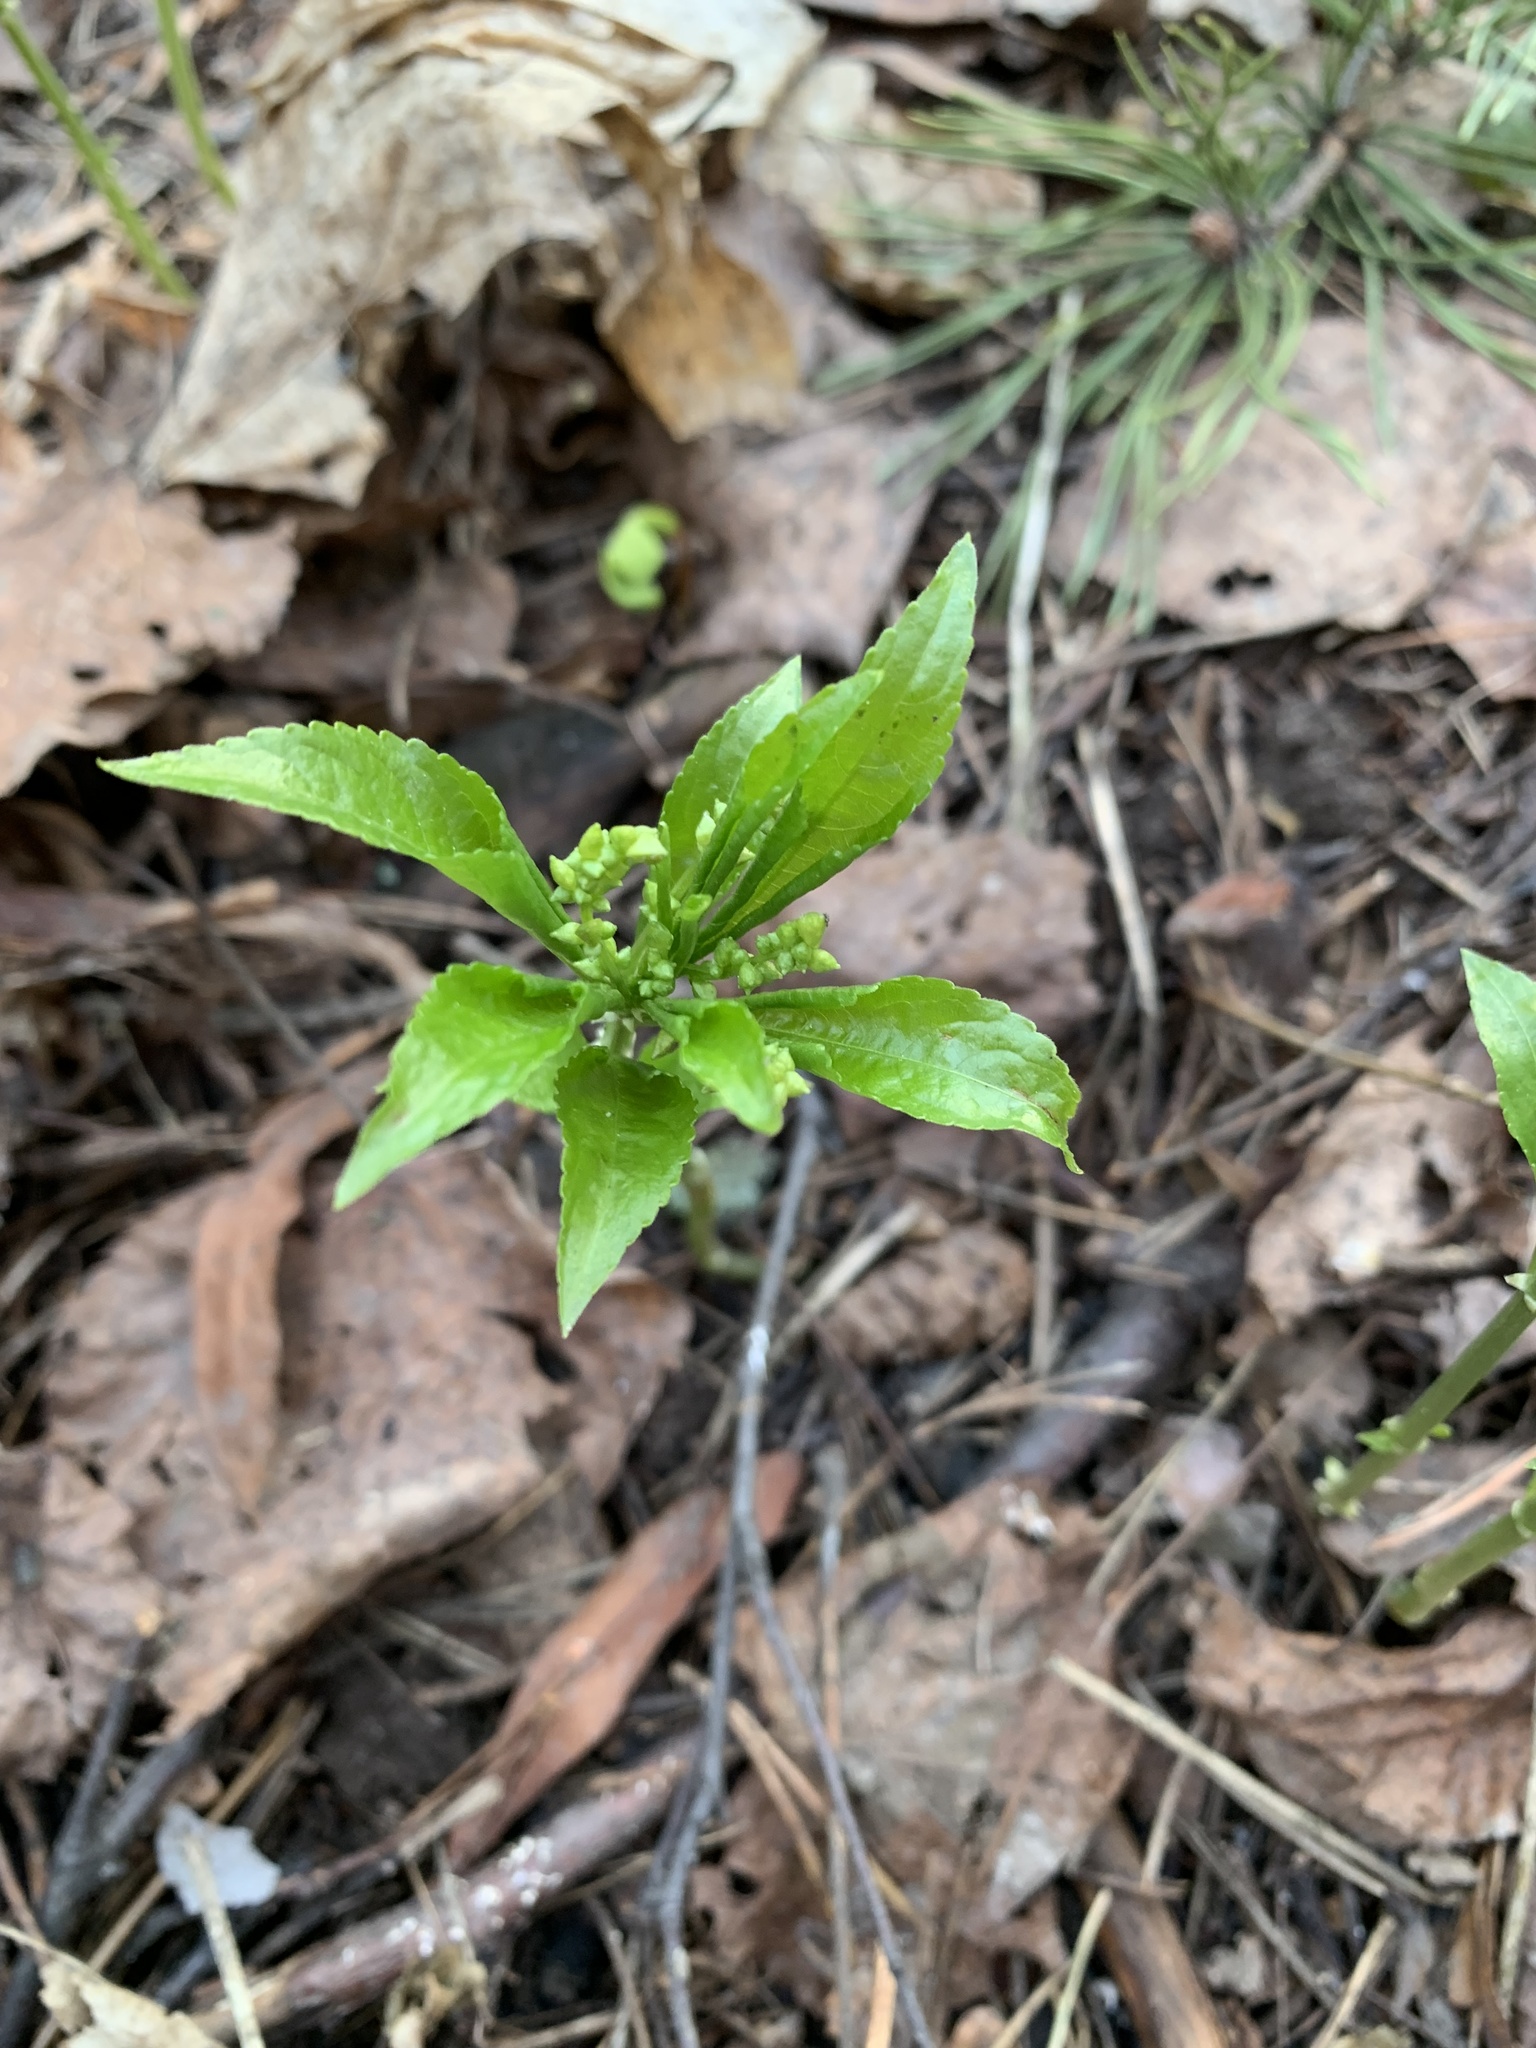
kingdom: Plantae
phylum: Tracheophyta
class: Magnoliopsida
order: Malpighiales
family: Euphorbiaceae
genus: Mercurialis
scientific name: Mercurialis perennis
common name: Dog mercury
